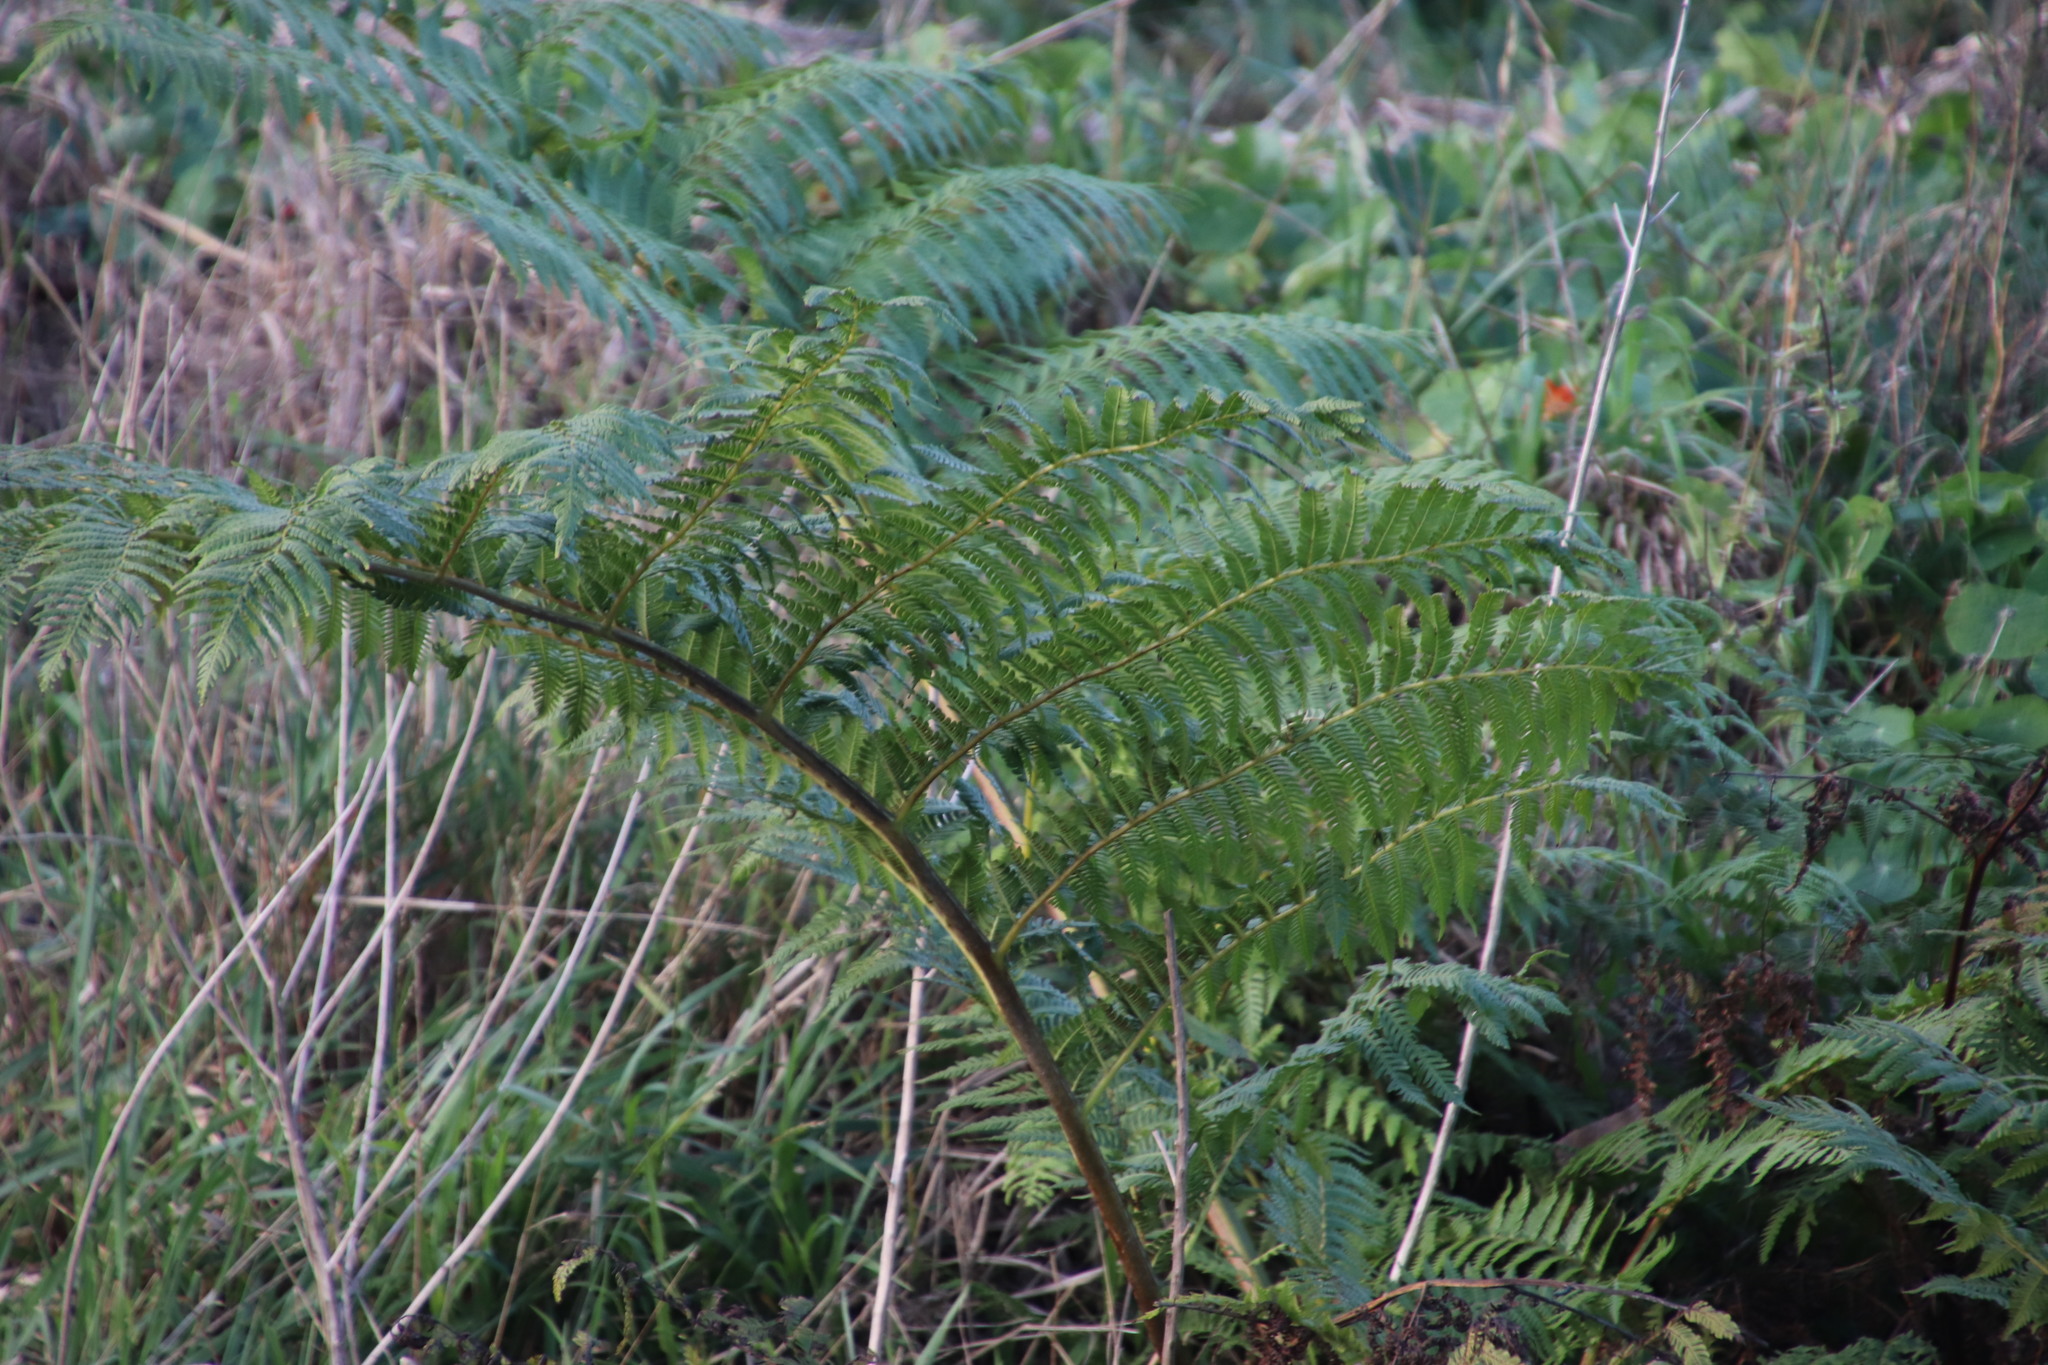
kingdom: Plantae
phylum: Tracheophyta
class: Polypodiopsida
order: Cyatheales
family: Cyatheaceae
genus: Sphaeropteris
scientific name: Sphaeropteris cooperi
